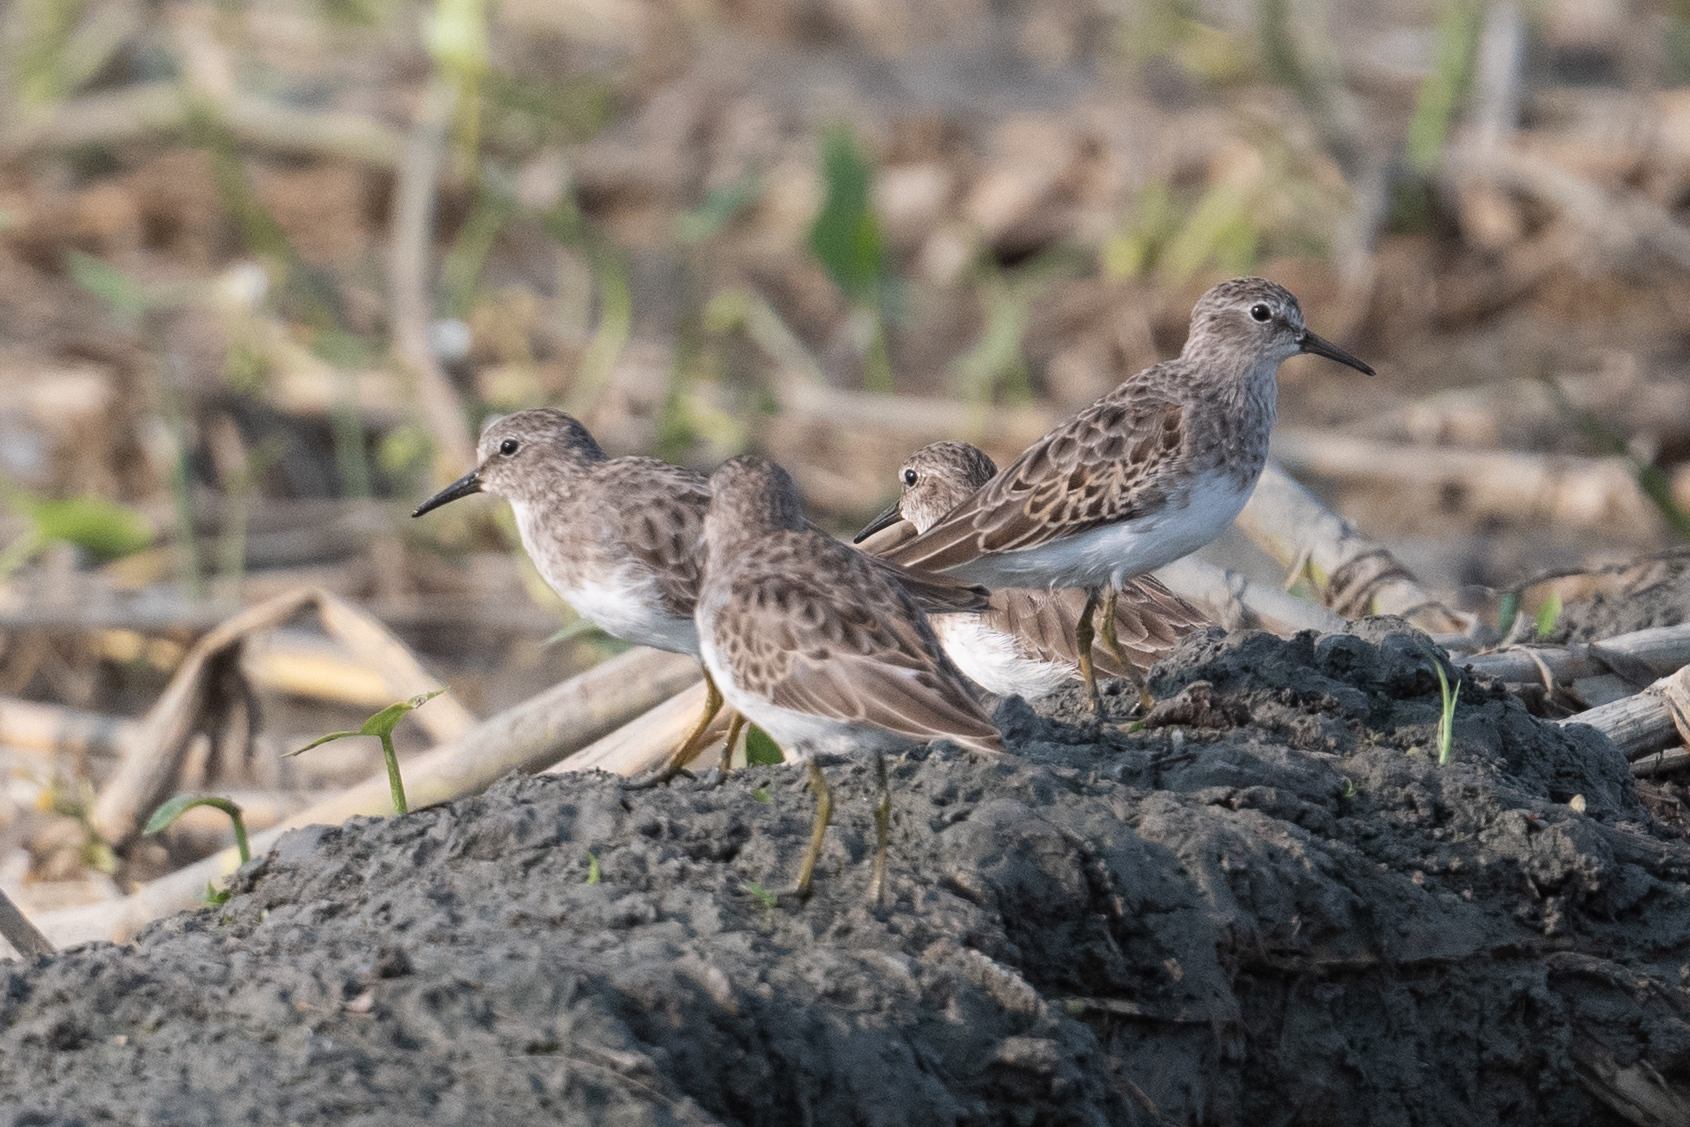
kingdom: Animalia
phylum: Chordata
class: Aves
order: Charadriiformes
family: Scolopacidae
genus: Calidris
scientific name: Calidris minutilla
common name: Least sandpiper
